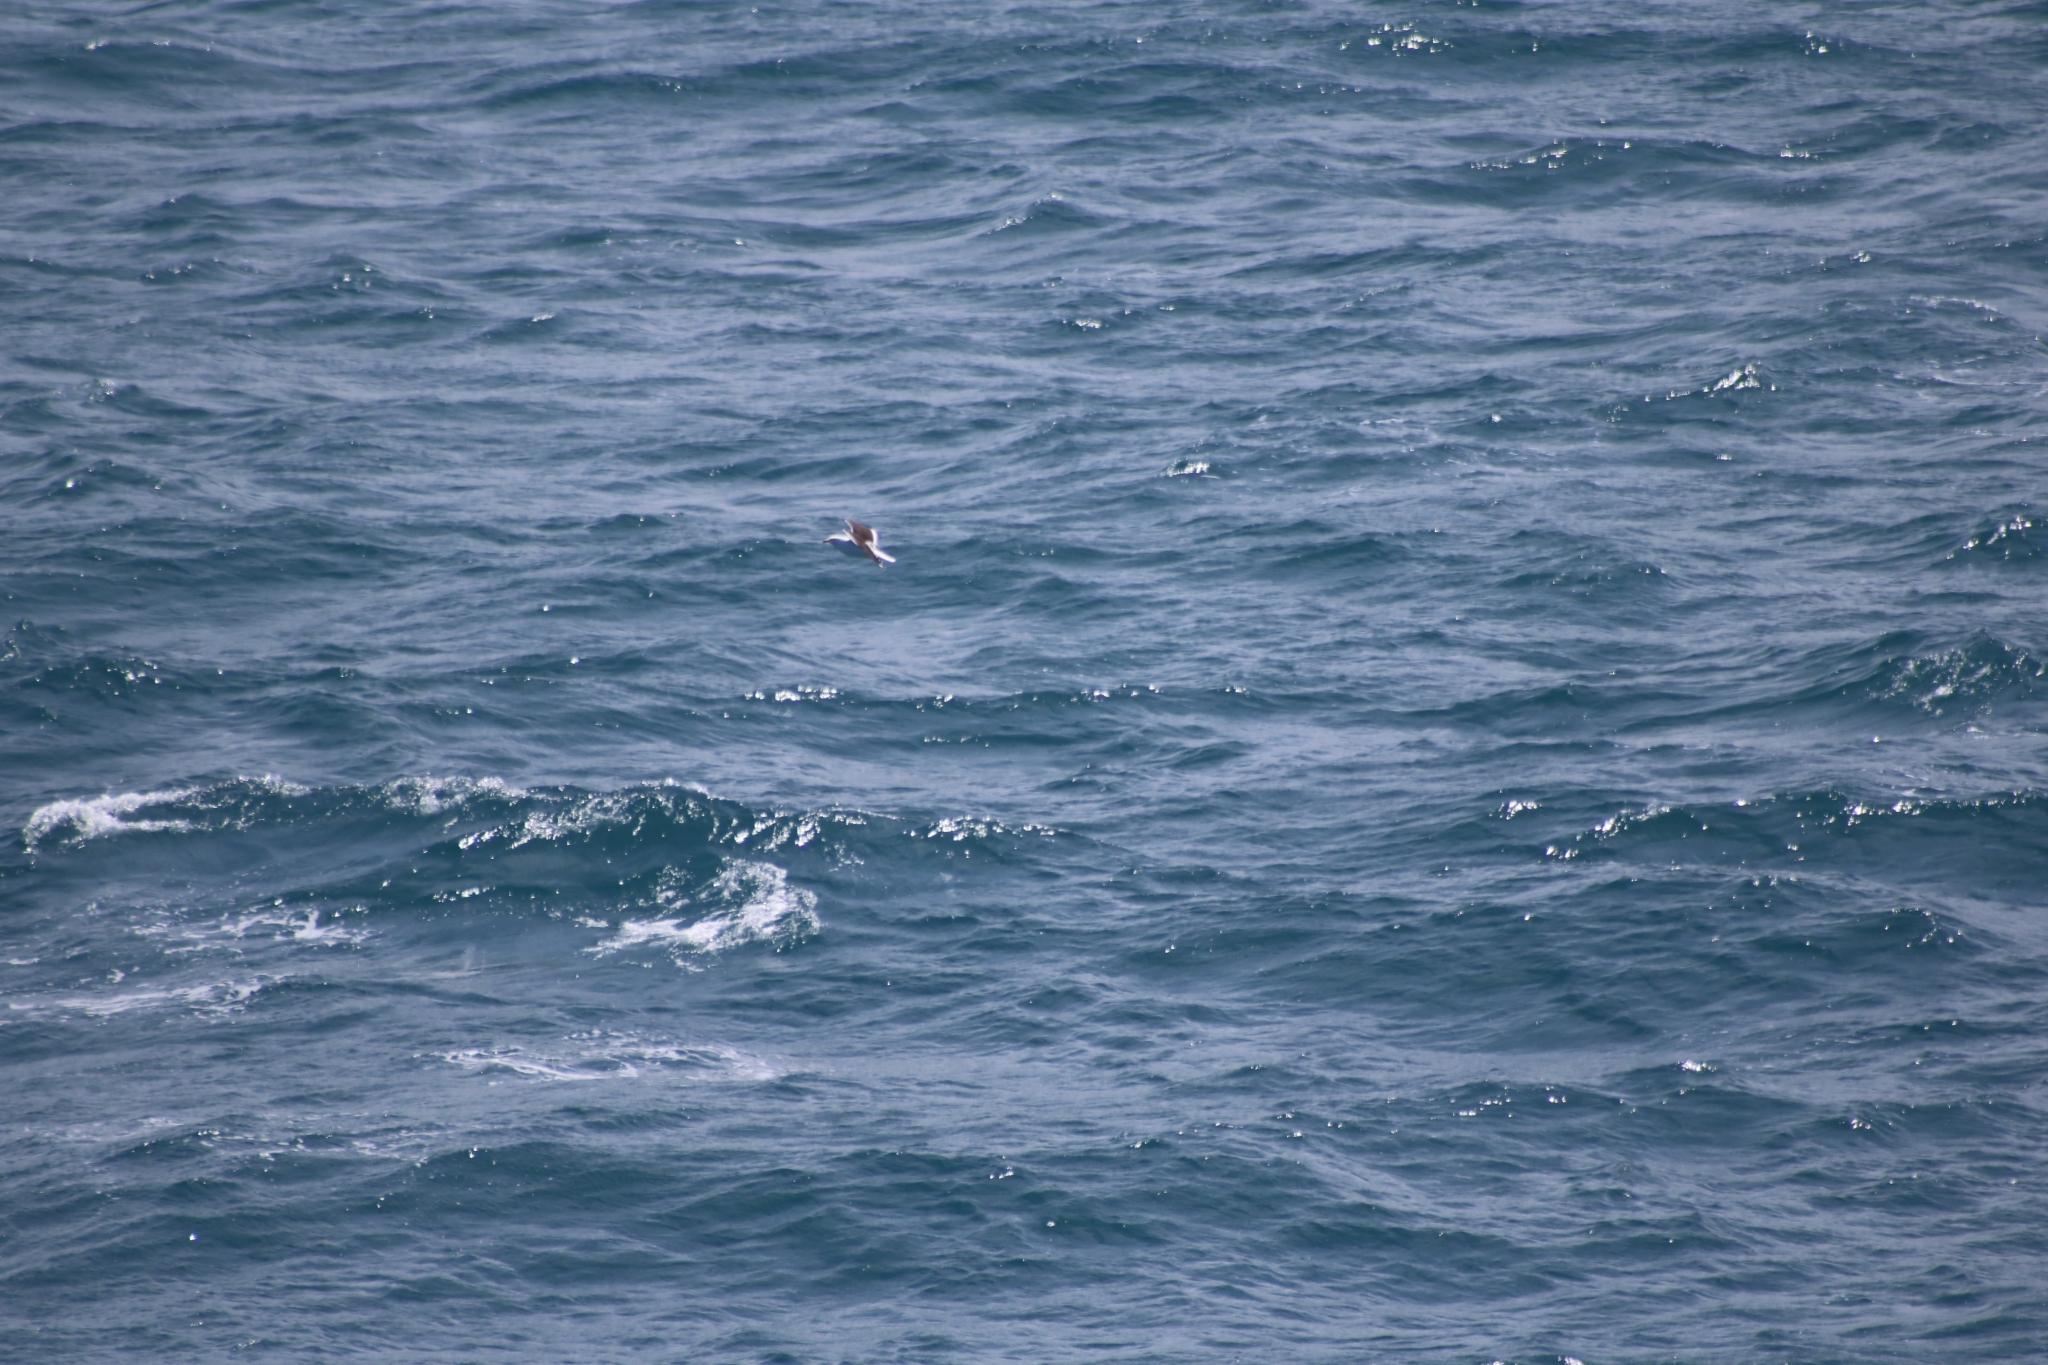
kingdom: Animalia
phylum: Chordata
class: Aves
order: Charadriiformes
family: Laridae
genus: Larus
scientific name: Larus dominicanus
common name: Kelp gull
